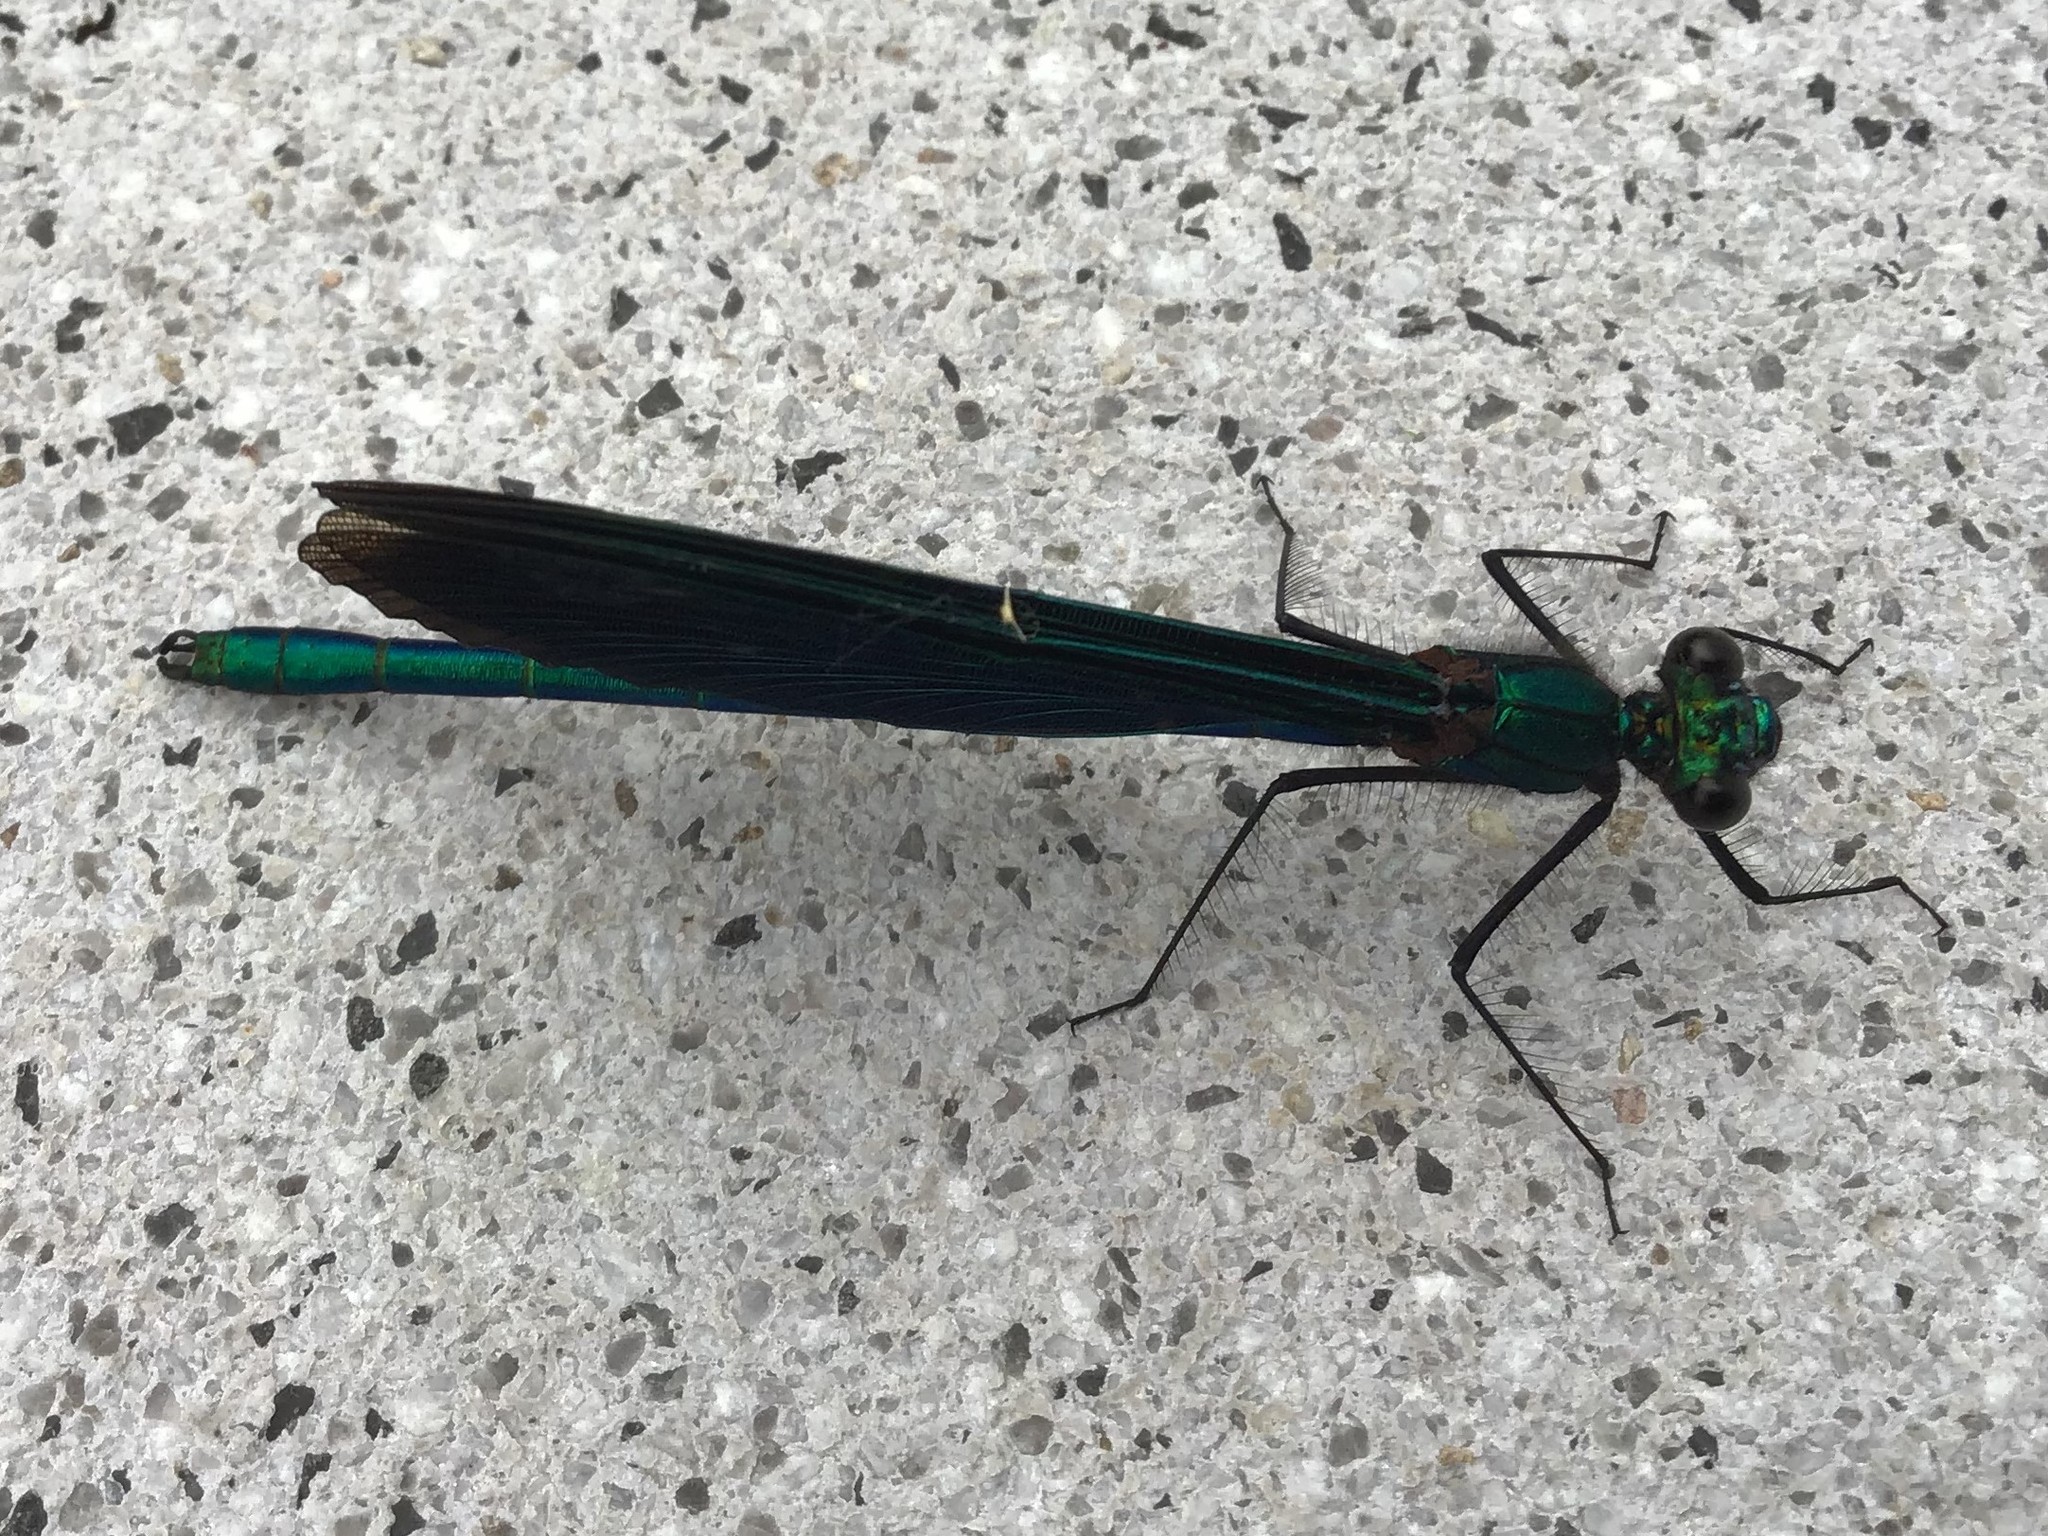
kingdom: Animalia
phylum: Arthropoda
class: Insecta
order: Odonata
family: Calopterygidae
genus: Calopteryx
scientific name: Calopteryx virgo
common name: Beautiful demoiselle
